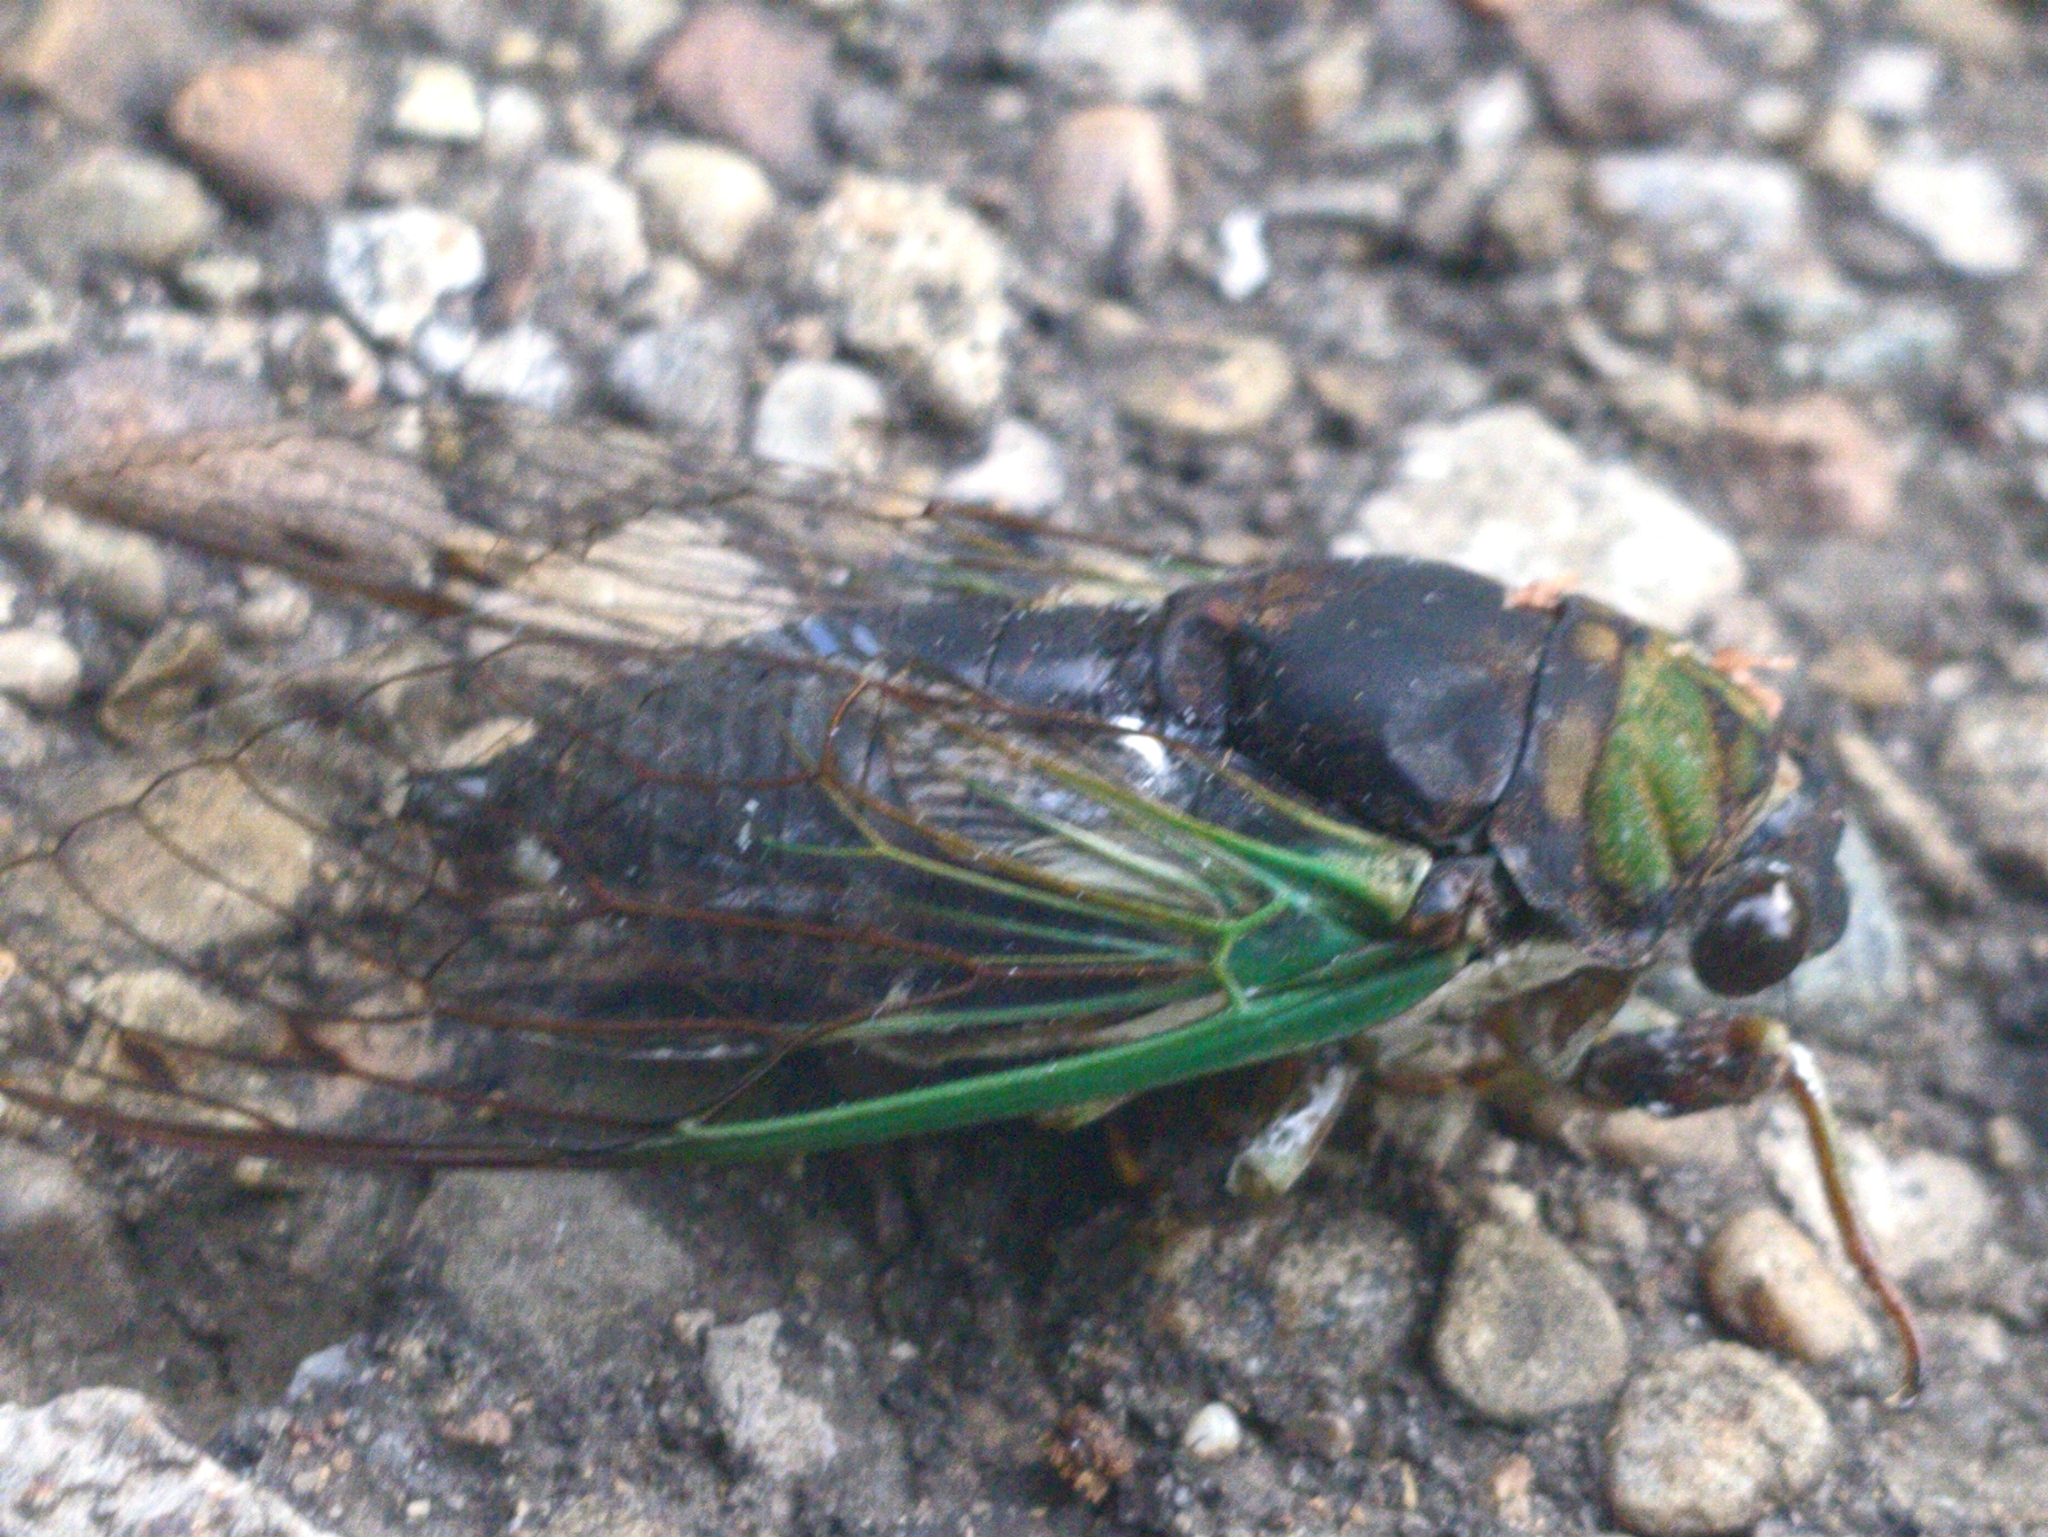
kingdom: Animalia
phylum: Arthropoda
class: Insecta
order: Hemiptera
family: Cicadidae
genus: Neotibicen
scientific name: Neotibicen tibicen
